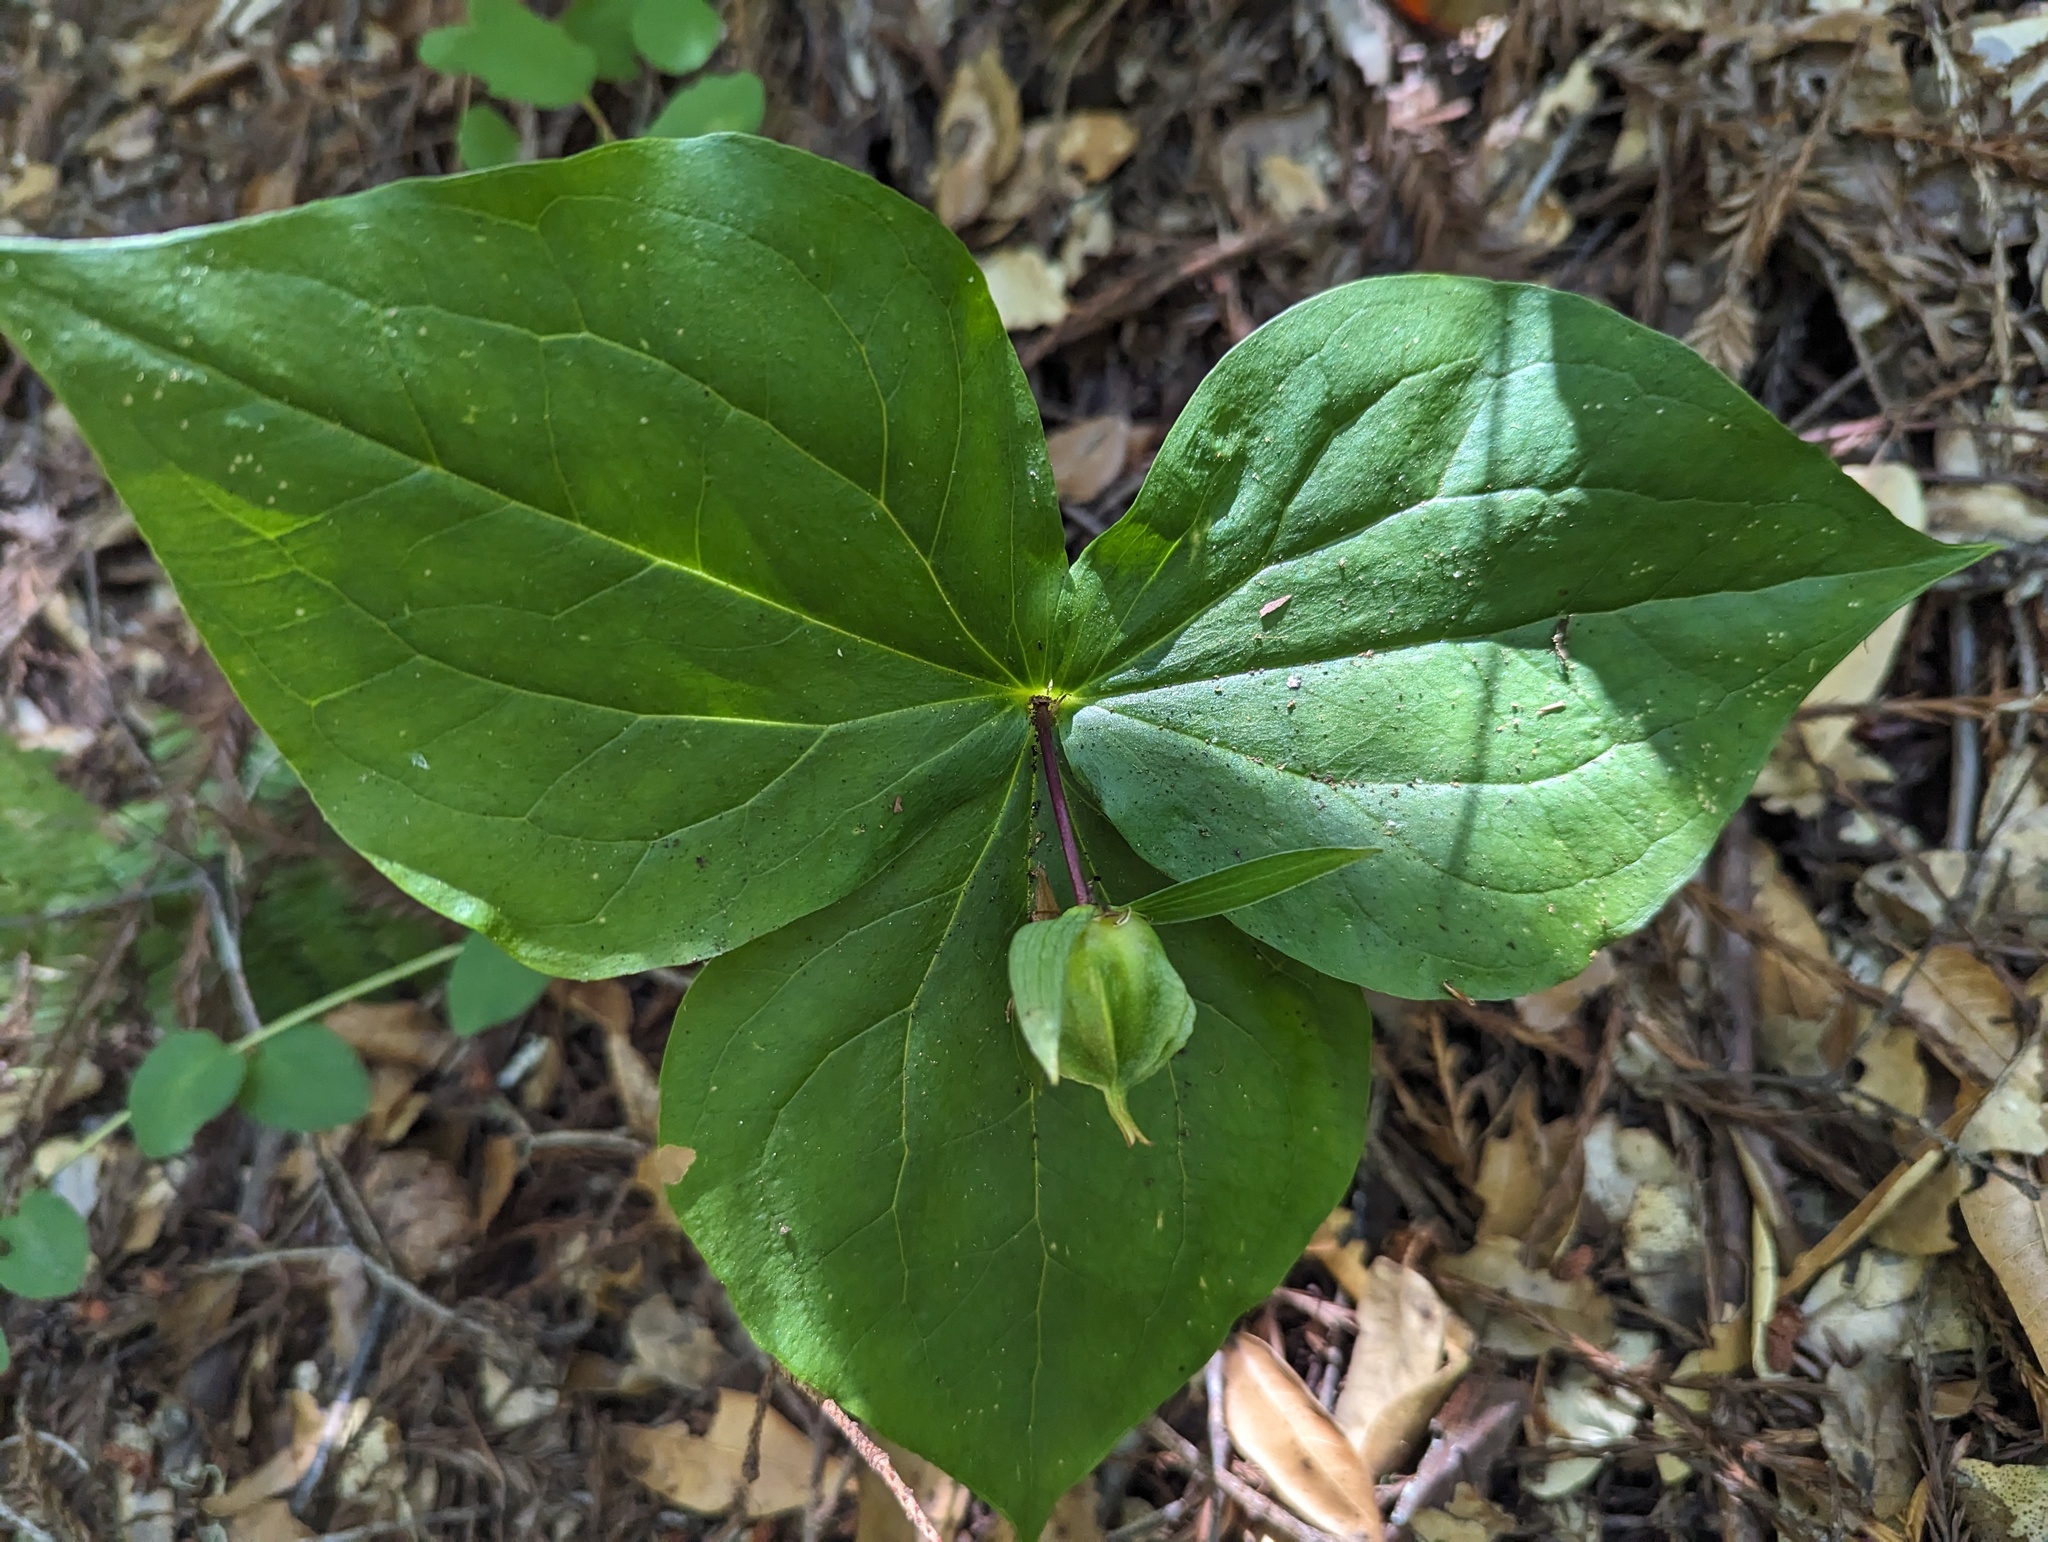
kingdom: Plantae
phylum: Tracheophyta
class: Liliopsida
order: Liliales
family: Melanthiaceae
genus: Trillium
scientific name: Trillium ovatum
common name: Pacific trillium
